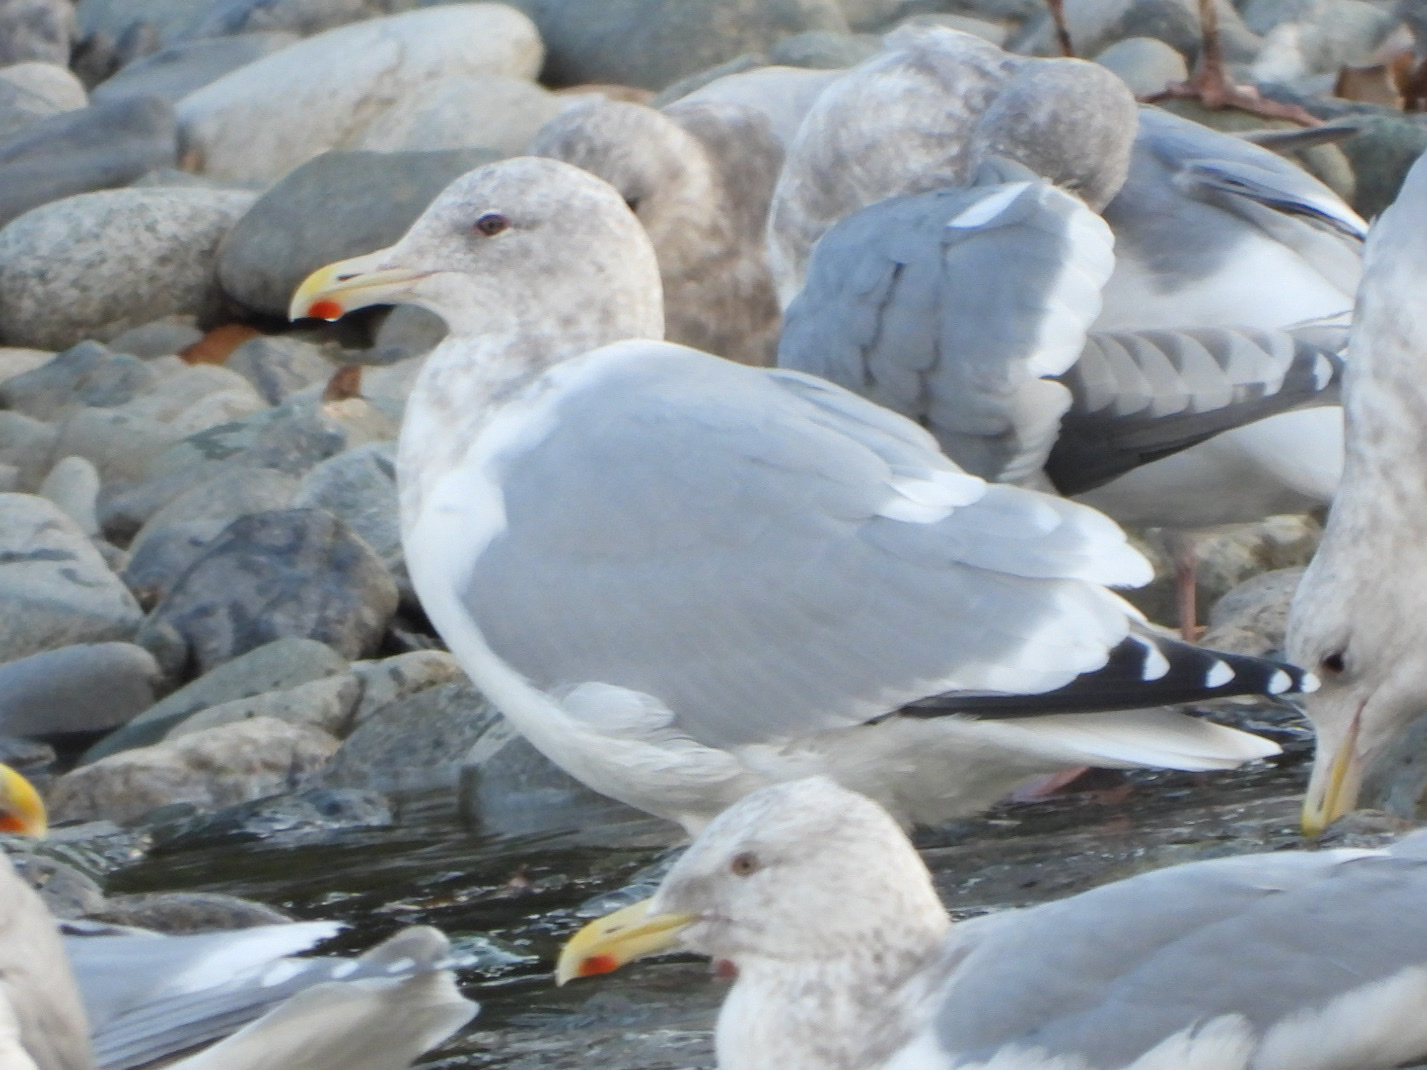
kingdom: Animalia
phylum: Chordata
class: Aves
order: Charadriiformes
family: Laridae
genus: Larus
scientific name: Larus
